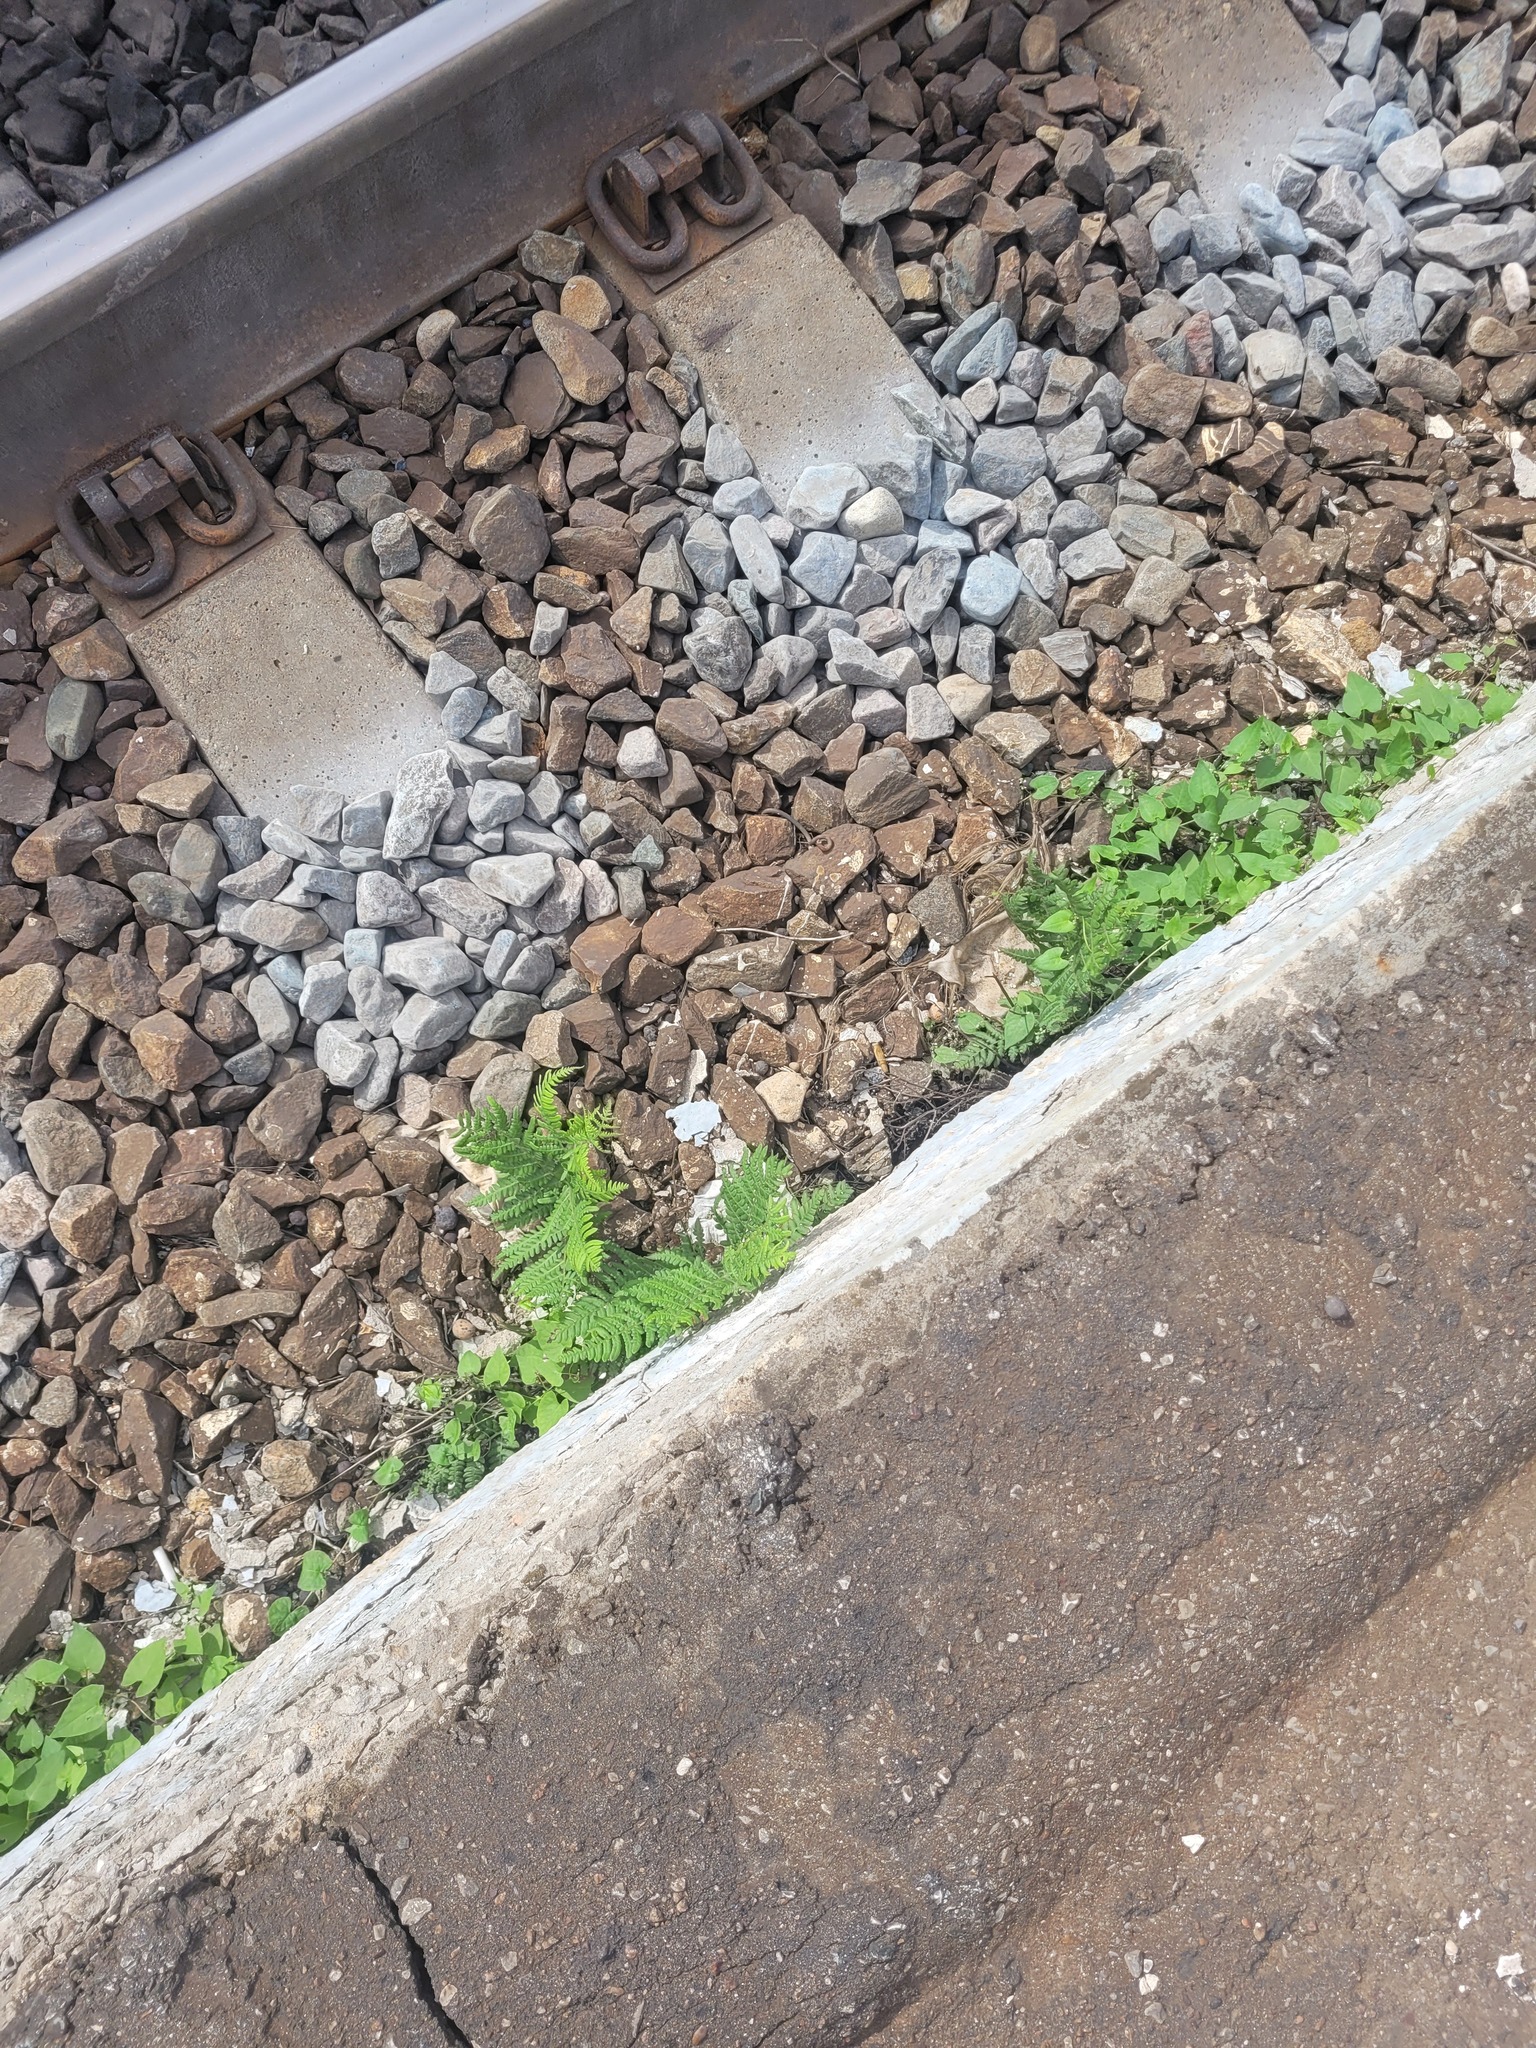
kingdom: Plantae
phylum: Tracheophyta
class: Polypodiopsida
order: Polypodiales
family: Dennstaedtiaceae
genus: Pteridium
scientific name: Pteridium aquilinum
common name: Bracken
